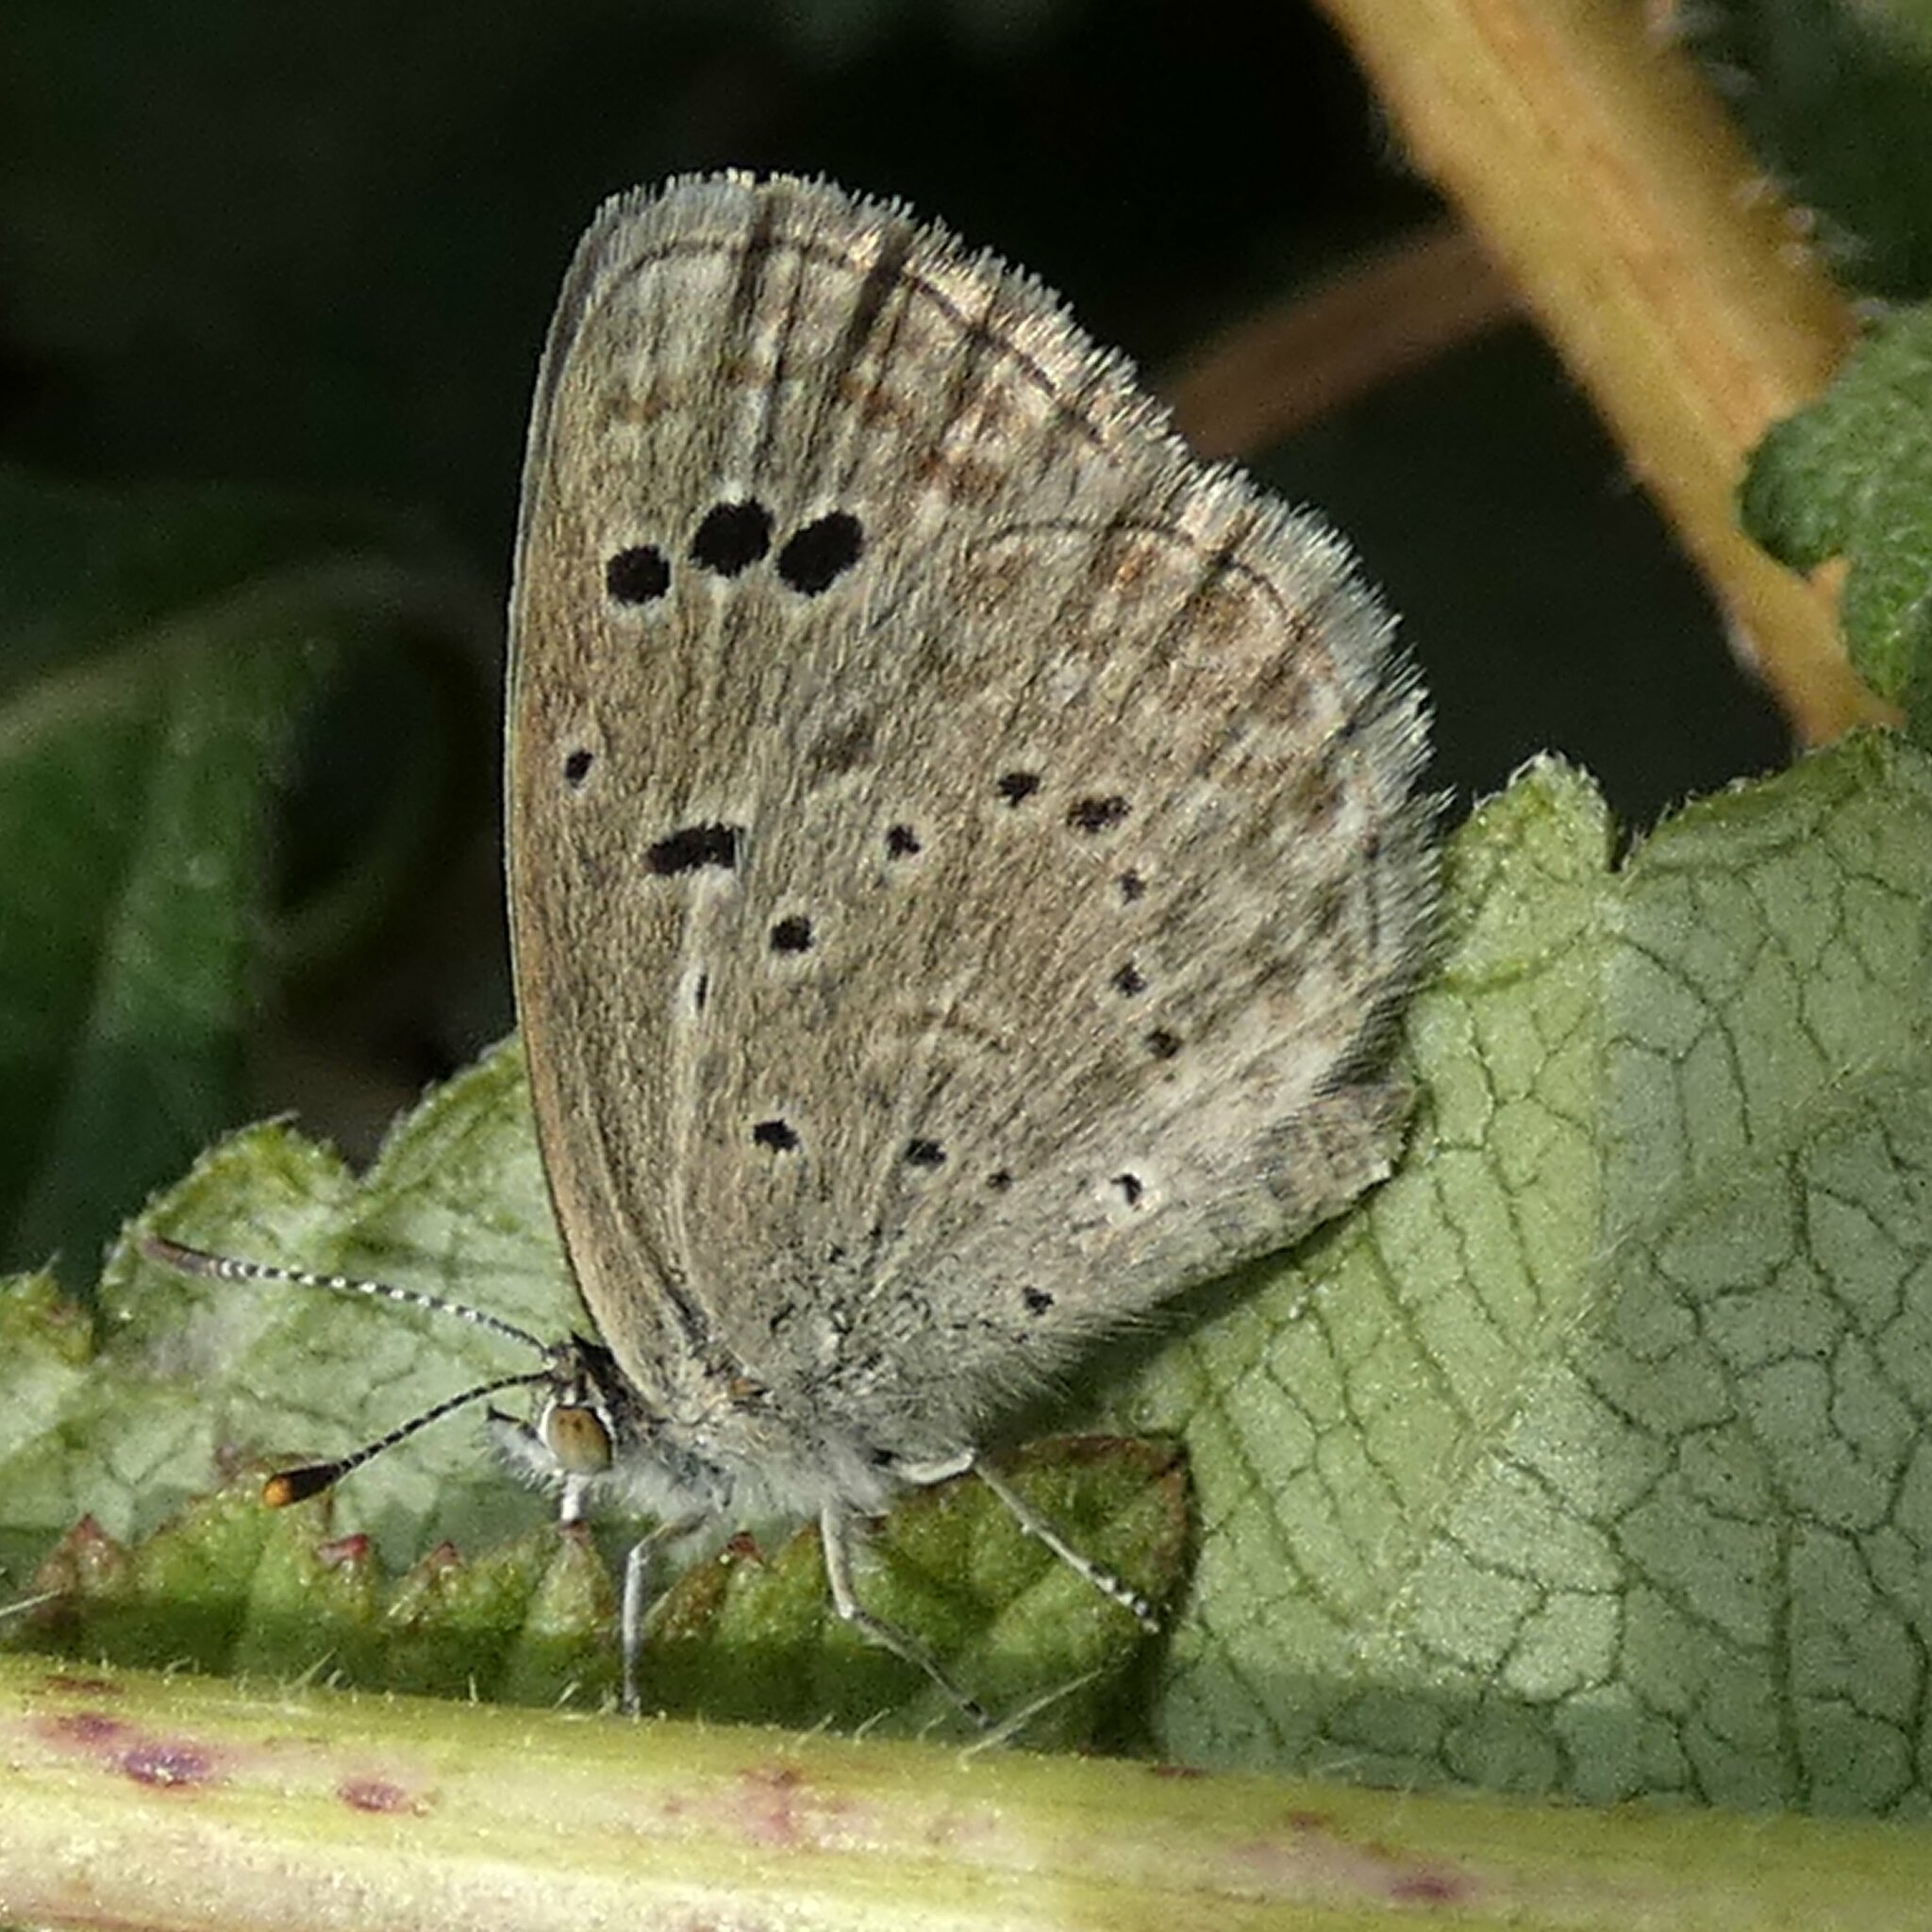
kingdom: Animalia
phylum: Arthropoda
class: Insecta
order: Lepidoptera
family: Lycaenidae
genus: Zizeeria
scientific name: Zizeeria karsandra
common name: Dark grass blue
